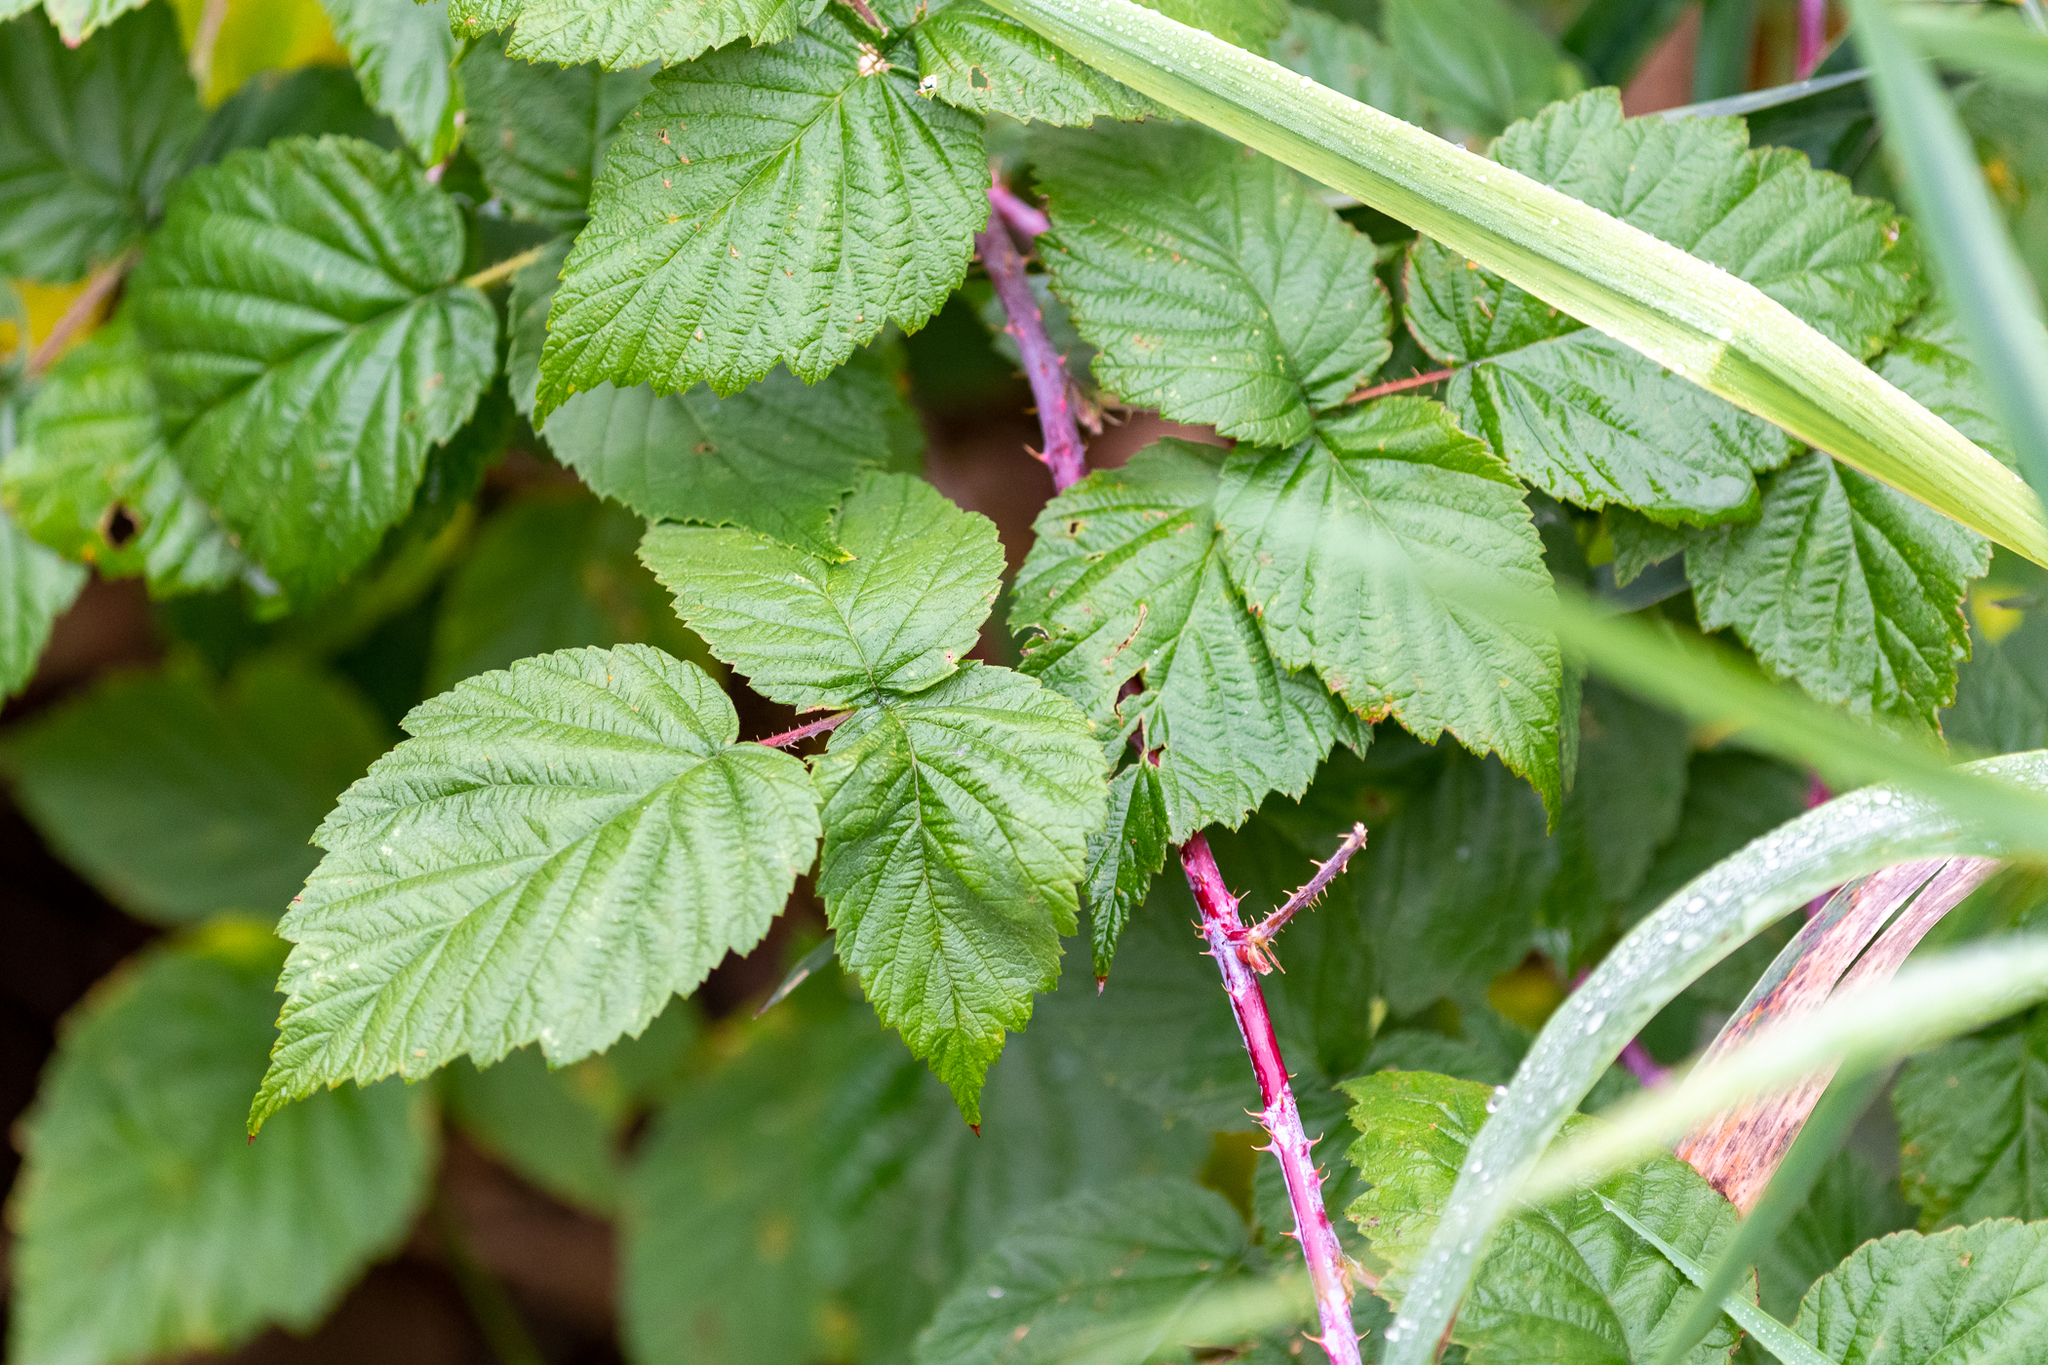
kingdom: Plantae
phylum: Tracheophyta
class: Magnoliopsida
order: Rosales
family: Rosaceae
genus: Rubus
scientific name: Rubus occidentalis
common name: Black raspberry
